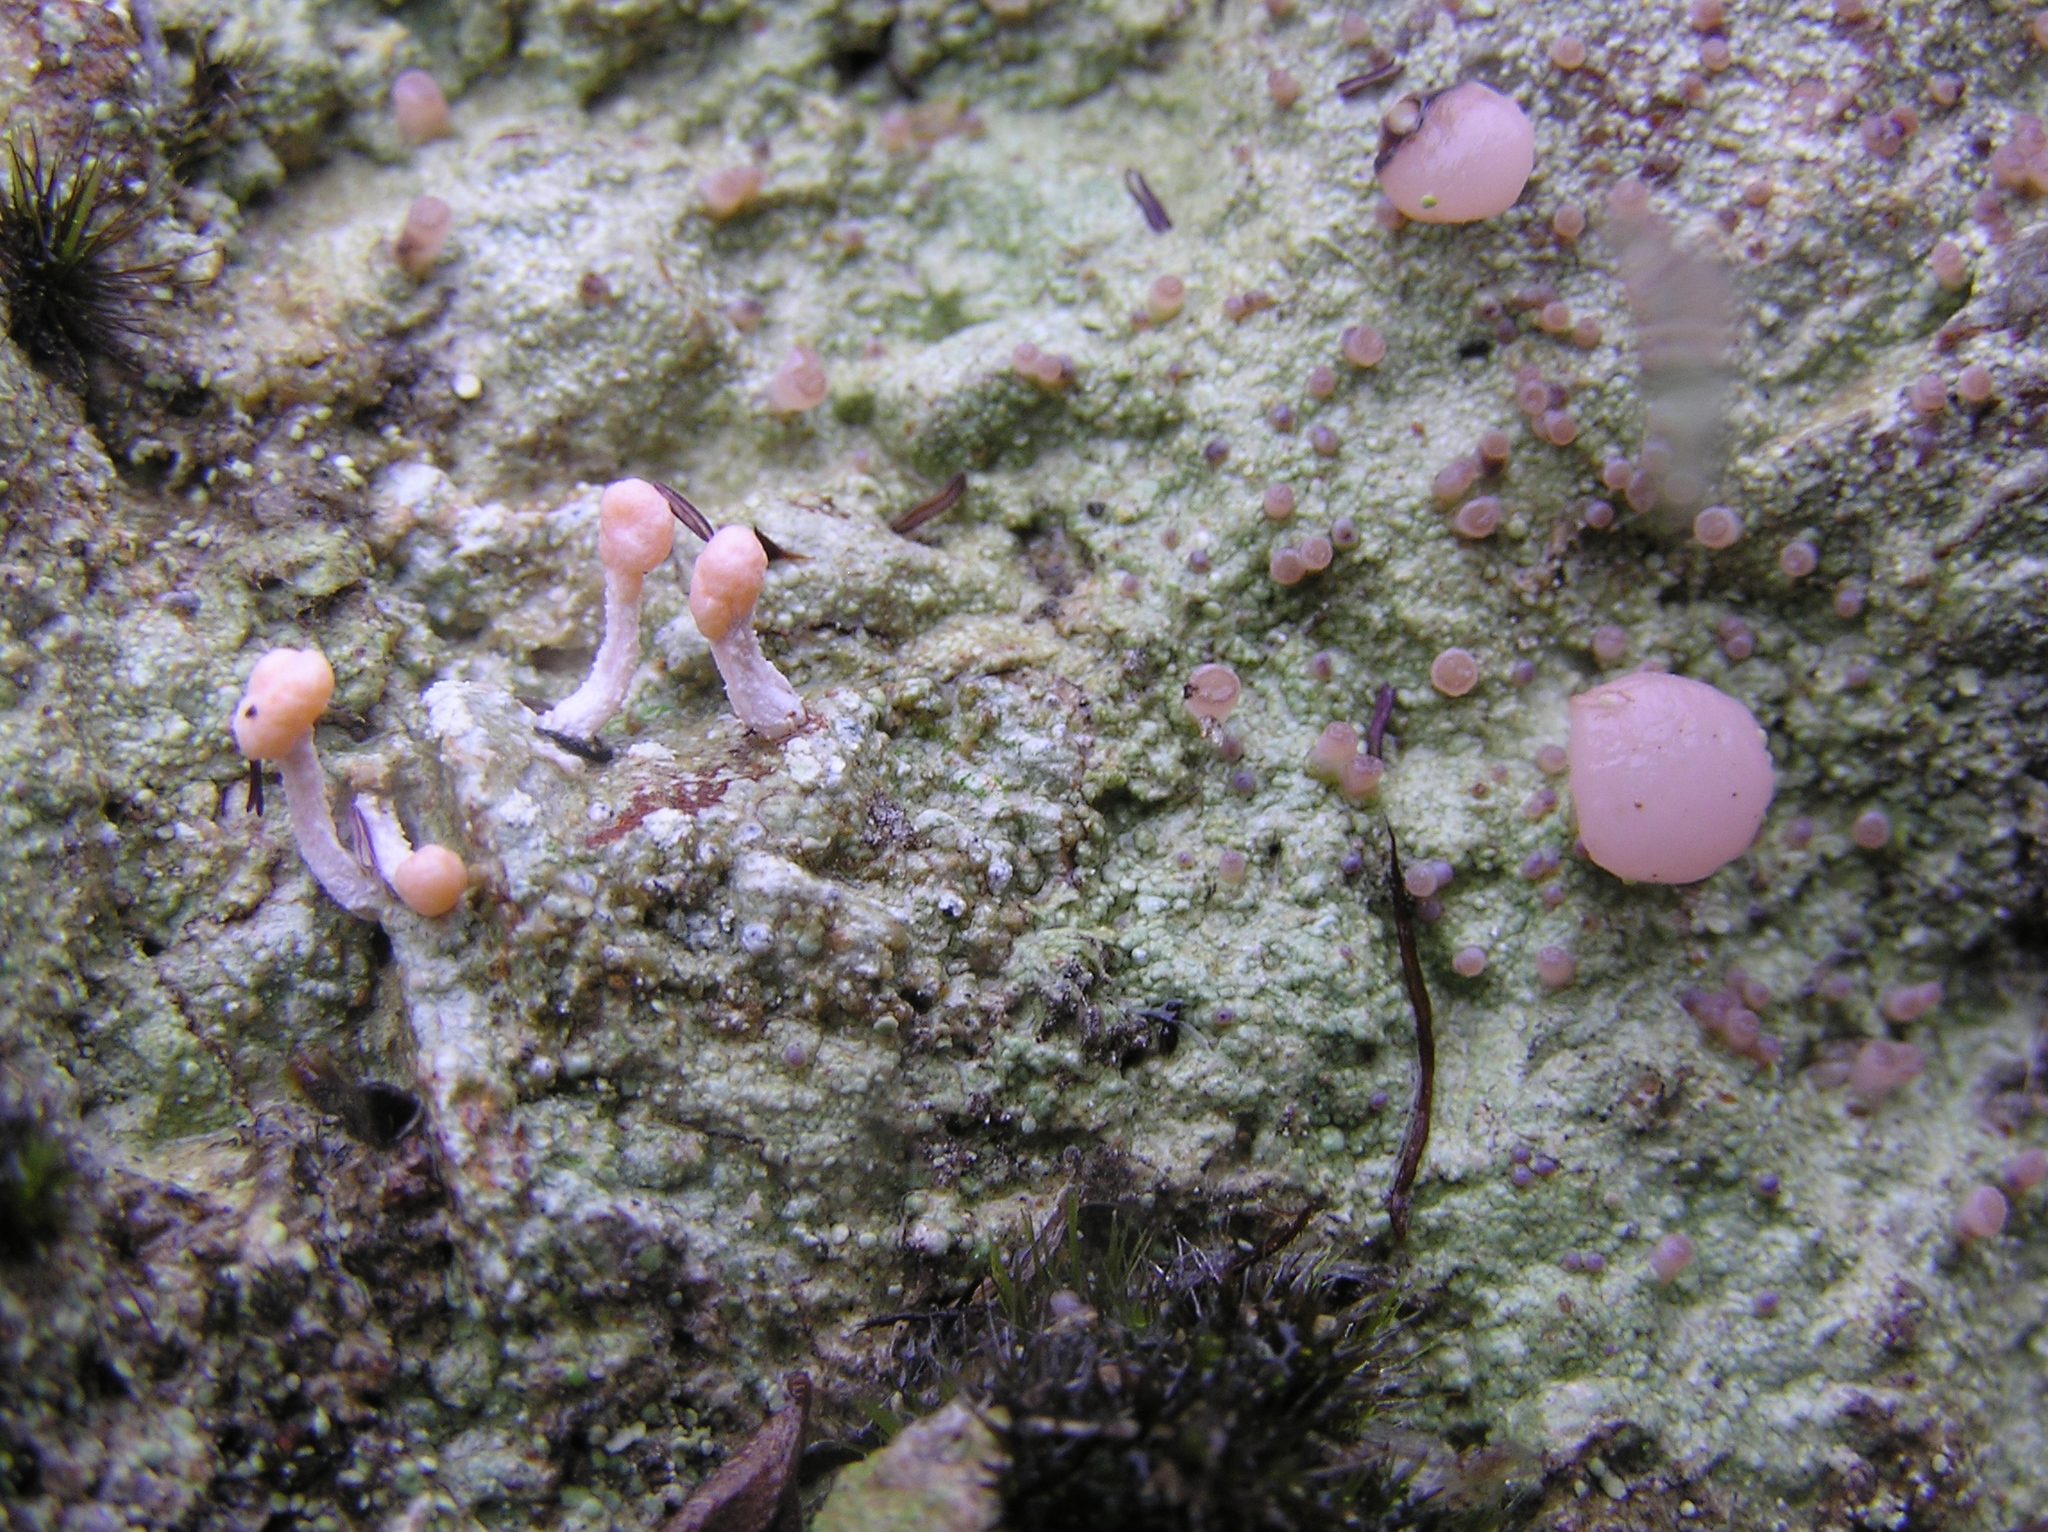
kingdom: Fungi
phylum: Ascomycota
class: Lecanoromycetes
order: Pertusariales
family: Icmadophilaceae
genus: Dibaeis
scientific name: Dibaeis arcuata
